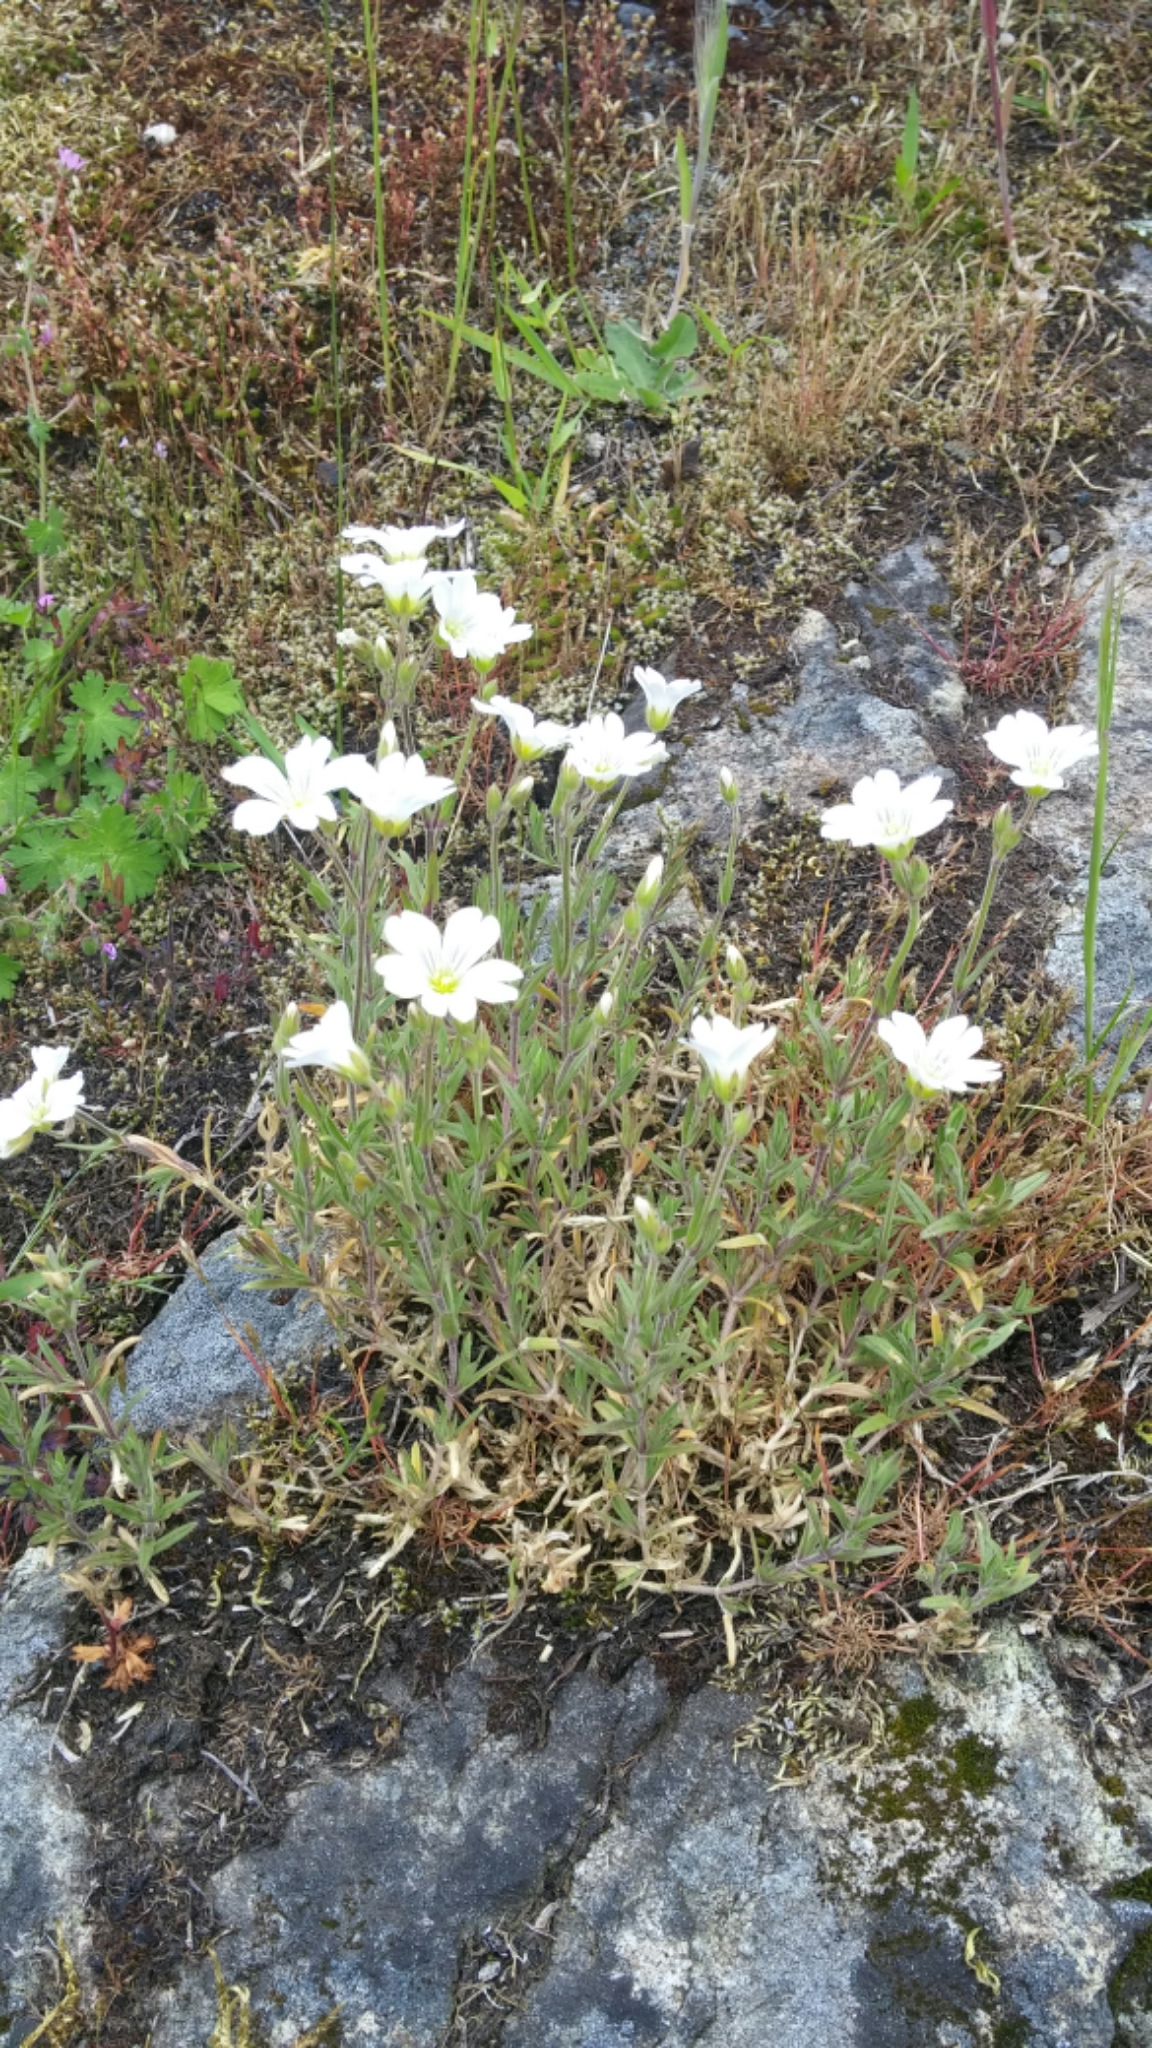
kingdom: Plantae
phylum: Tracheophyta
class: Magnoliopsida
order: Caryophyllales
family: Caryophyllaceae
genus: Cerastium
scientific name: Cerastium arvense
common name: Field mouse-ear
